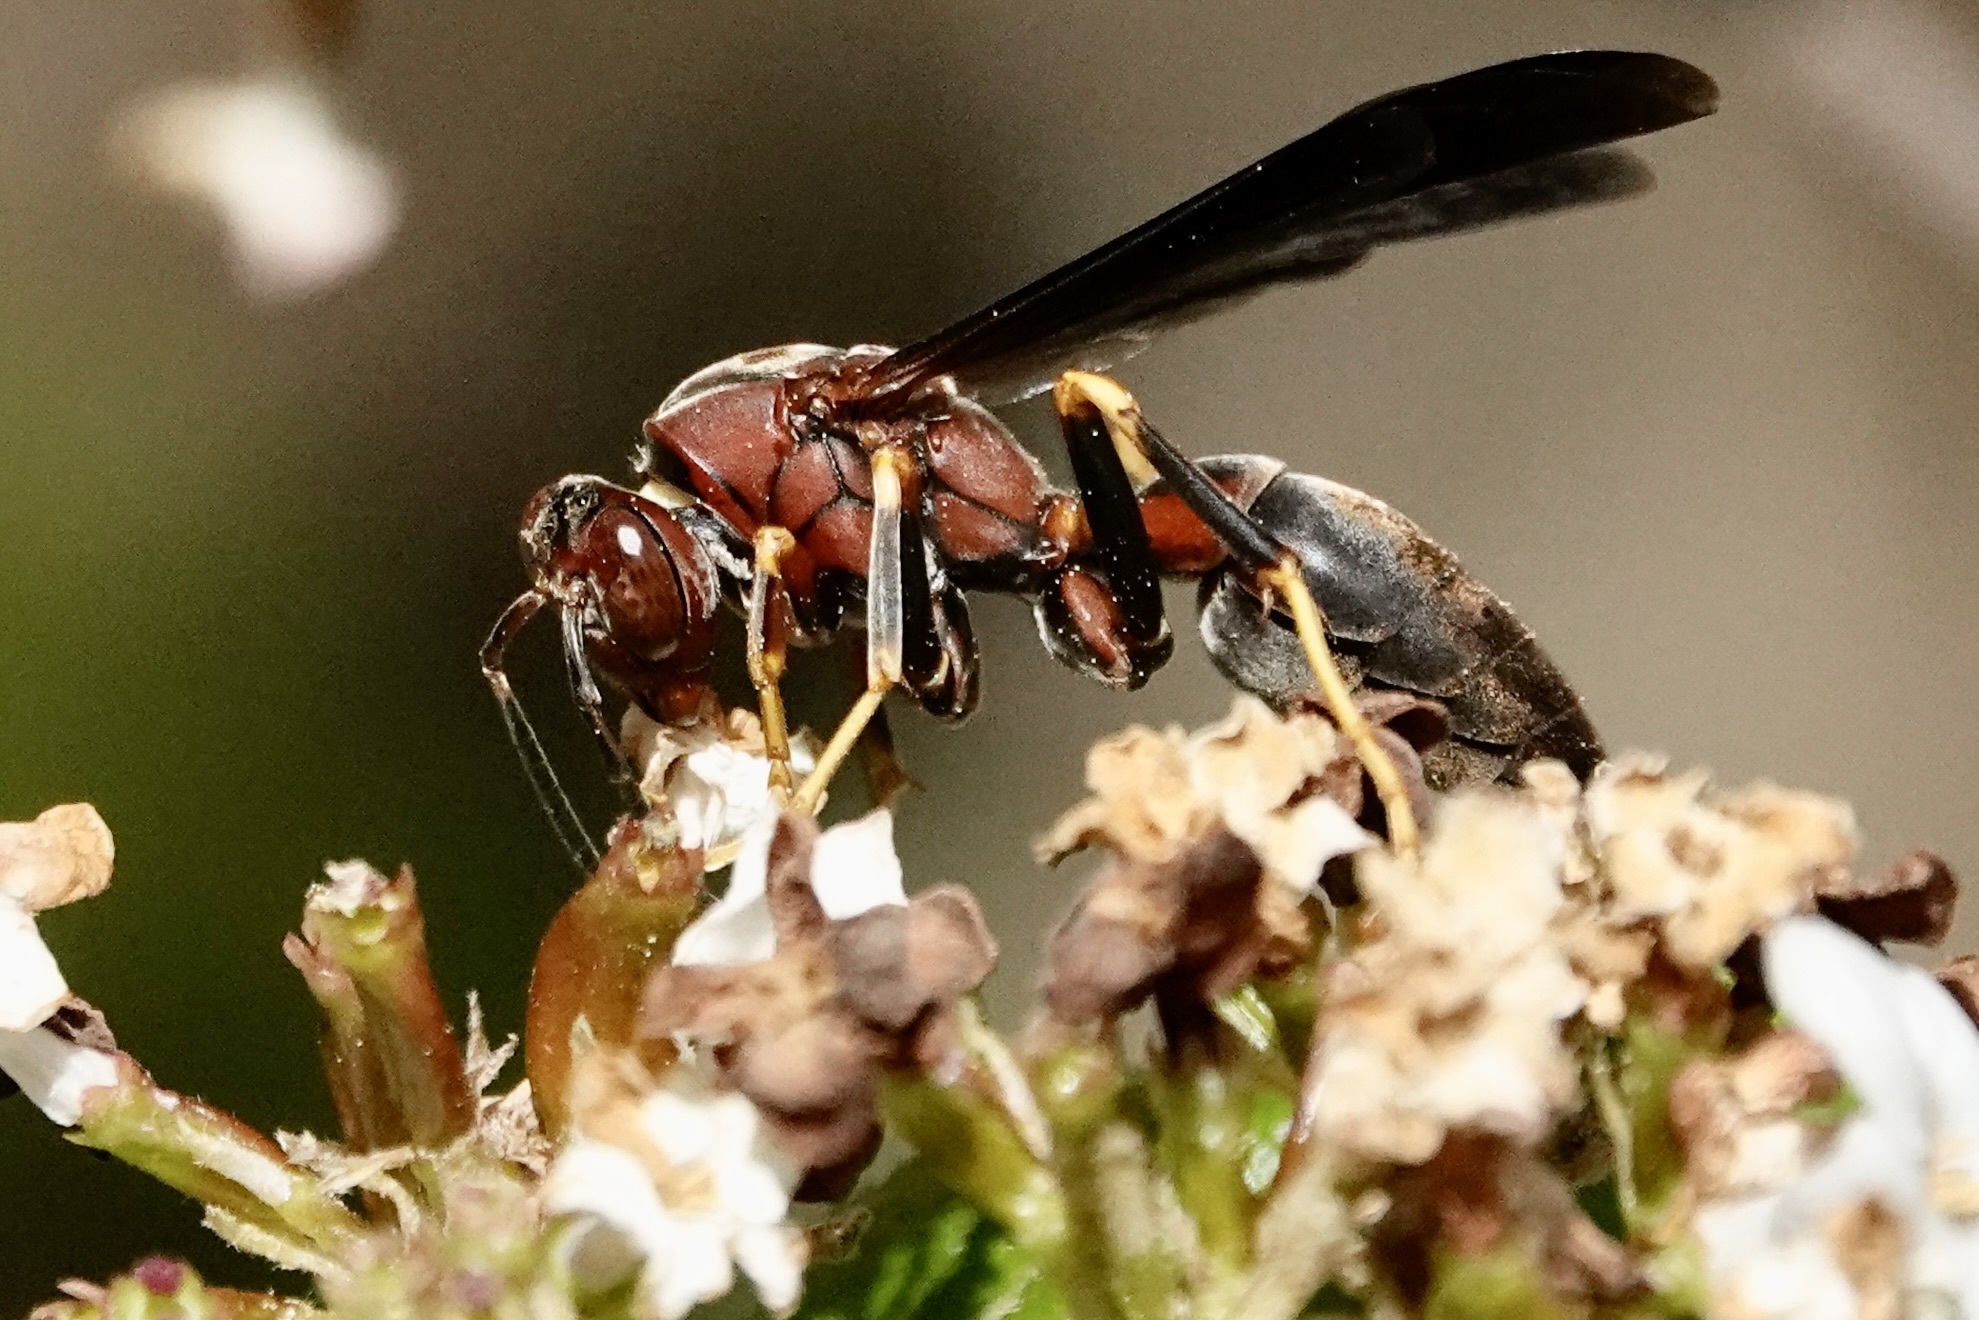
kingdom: Animalia
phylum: Arthropoda
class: Insecta
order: Hymenoptera
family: Eumenidae
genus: Polistes
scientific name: Polistes metricus
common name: Metric paper wasp
